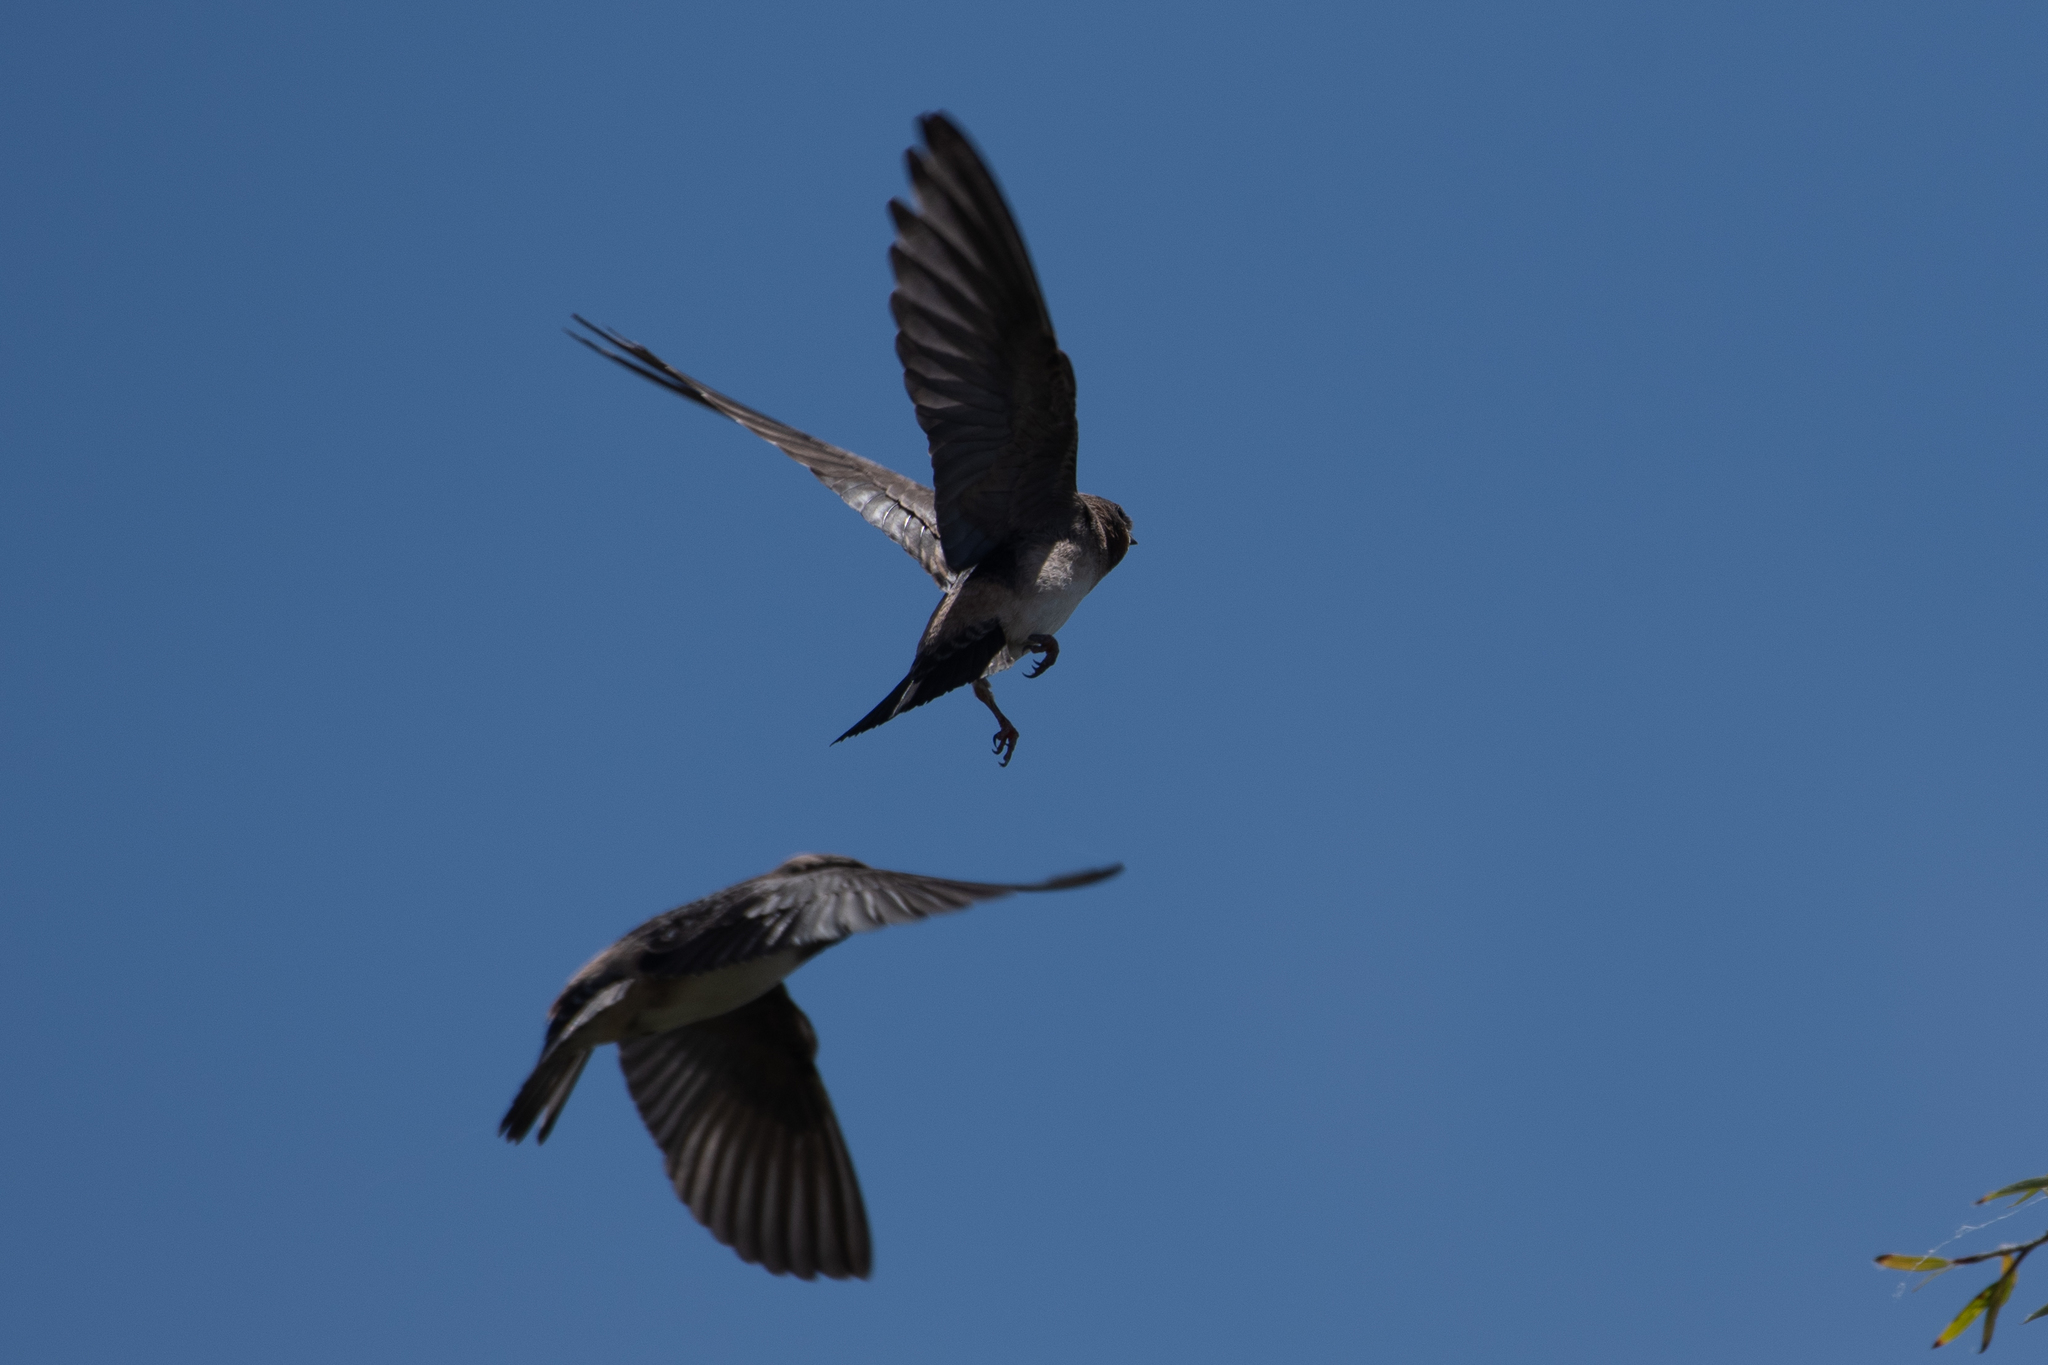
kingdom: Animalia
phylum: Chordata
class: Aves
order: Passeriformes
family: Hirundinidae
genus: Petrochelidon
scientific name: Petrochelidon pyrrhonota
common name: American cliff swallow
